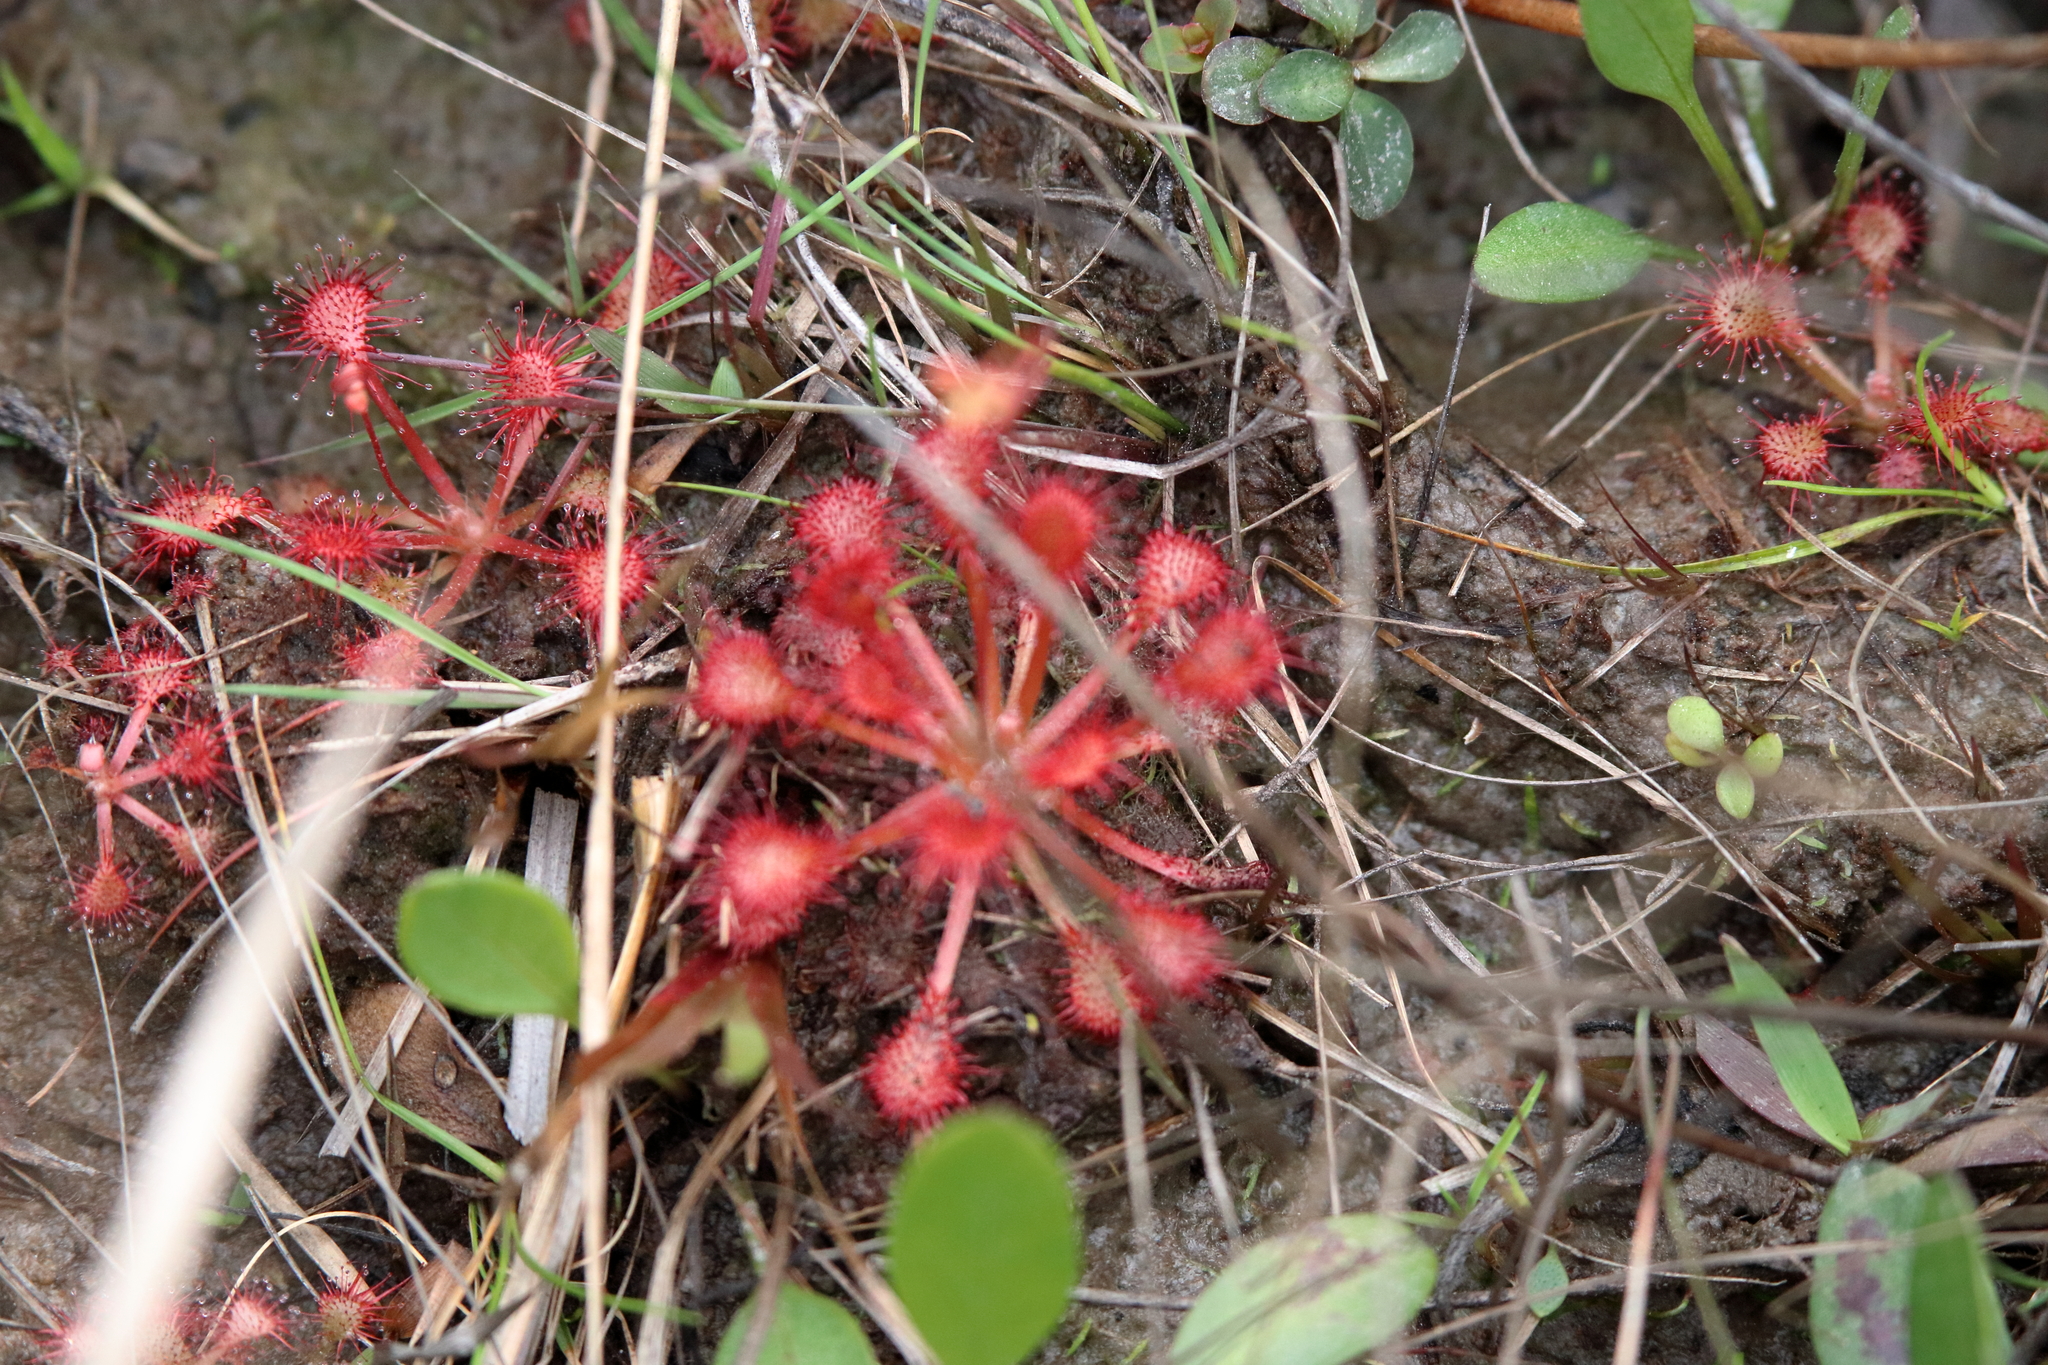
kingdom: Plantae
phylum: Tracheophyta
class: Magnoliopsida
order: Caryophyllales
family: Droseraceae
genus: Drosera
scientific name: Drosera capillaris
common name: Pink sundew
